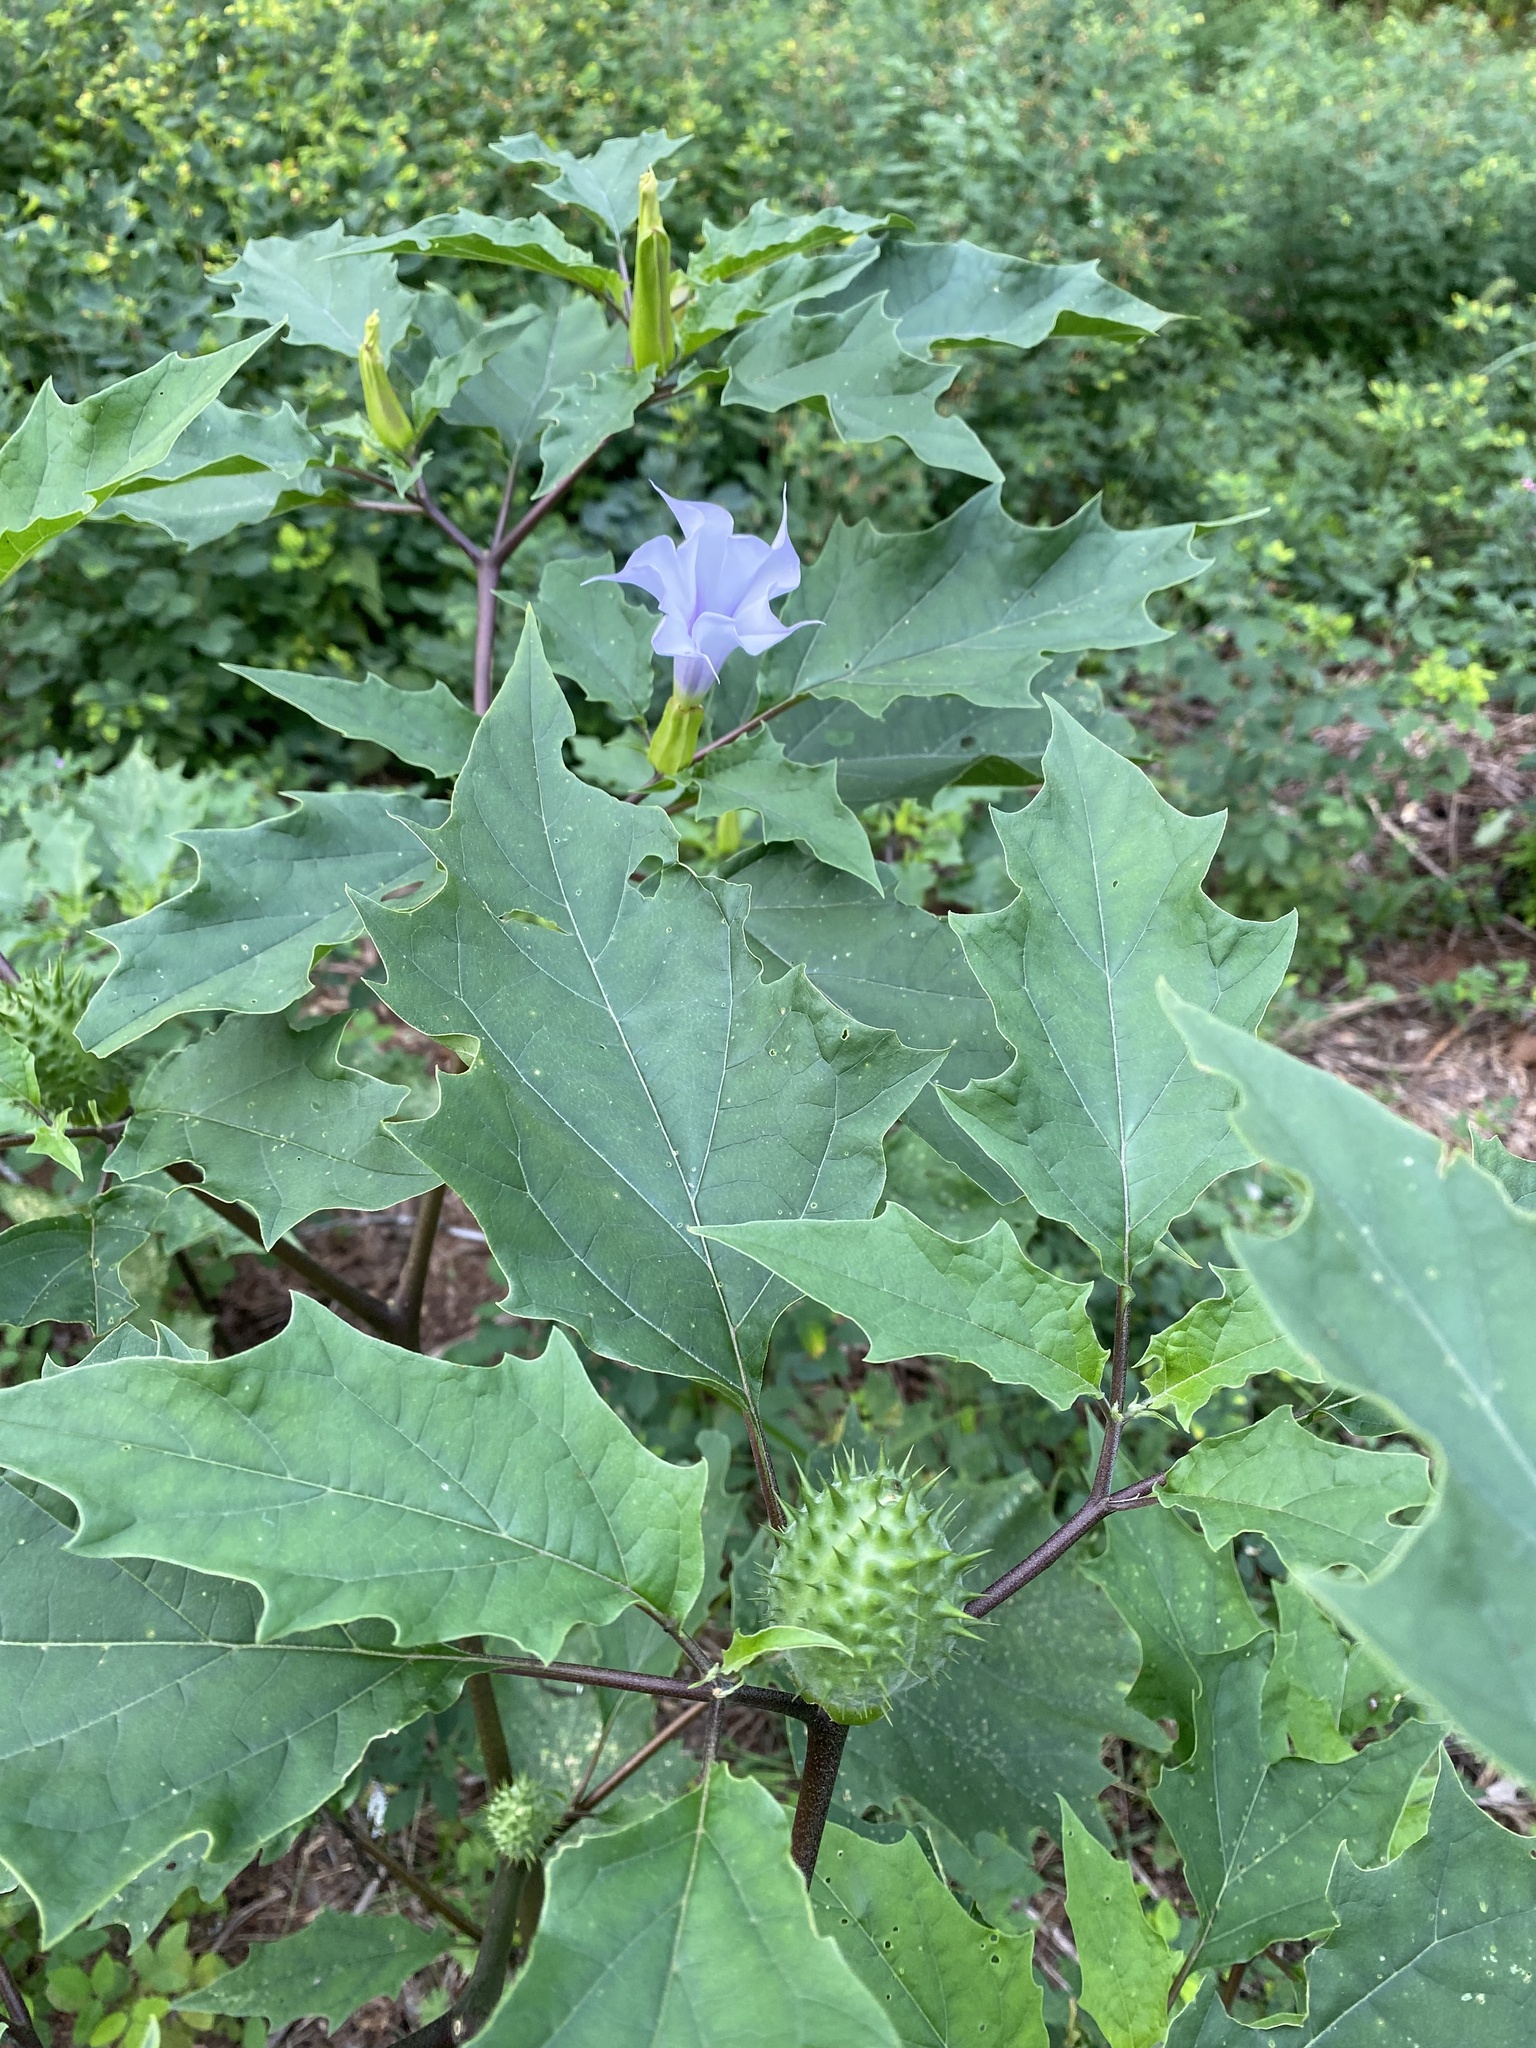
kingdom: Plantae
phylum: Tracheophyta
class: Magnoliopsida
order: Solanales
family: Solanaceae
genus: Datura
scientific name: Datura stramonium
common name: Thorn-apple
